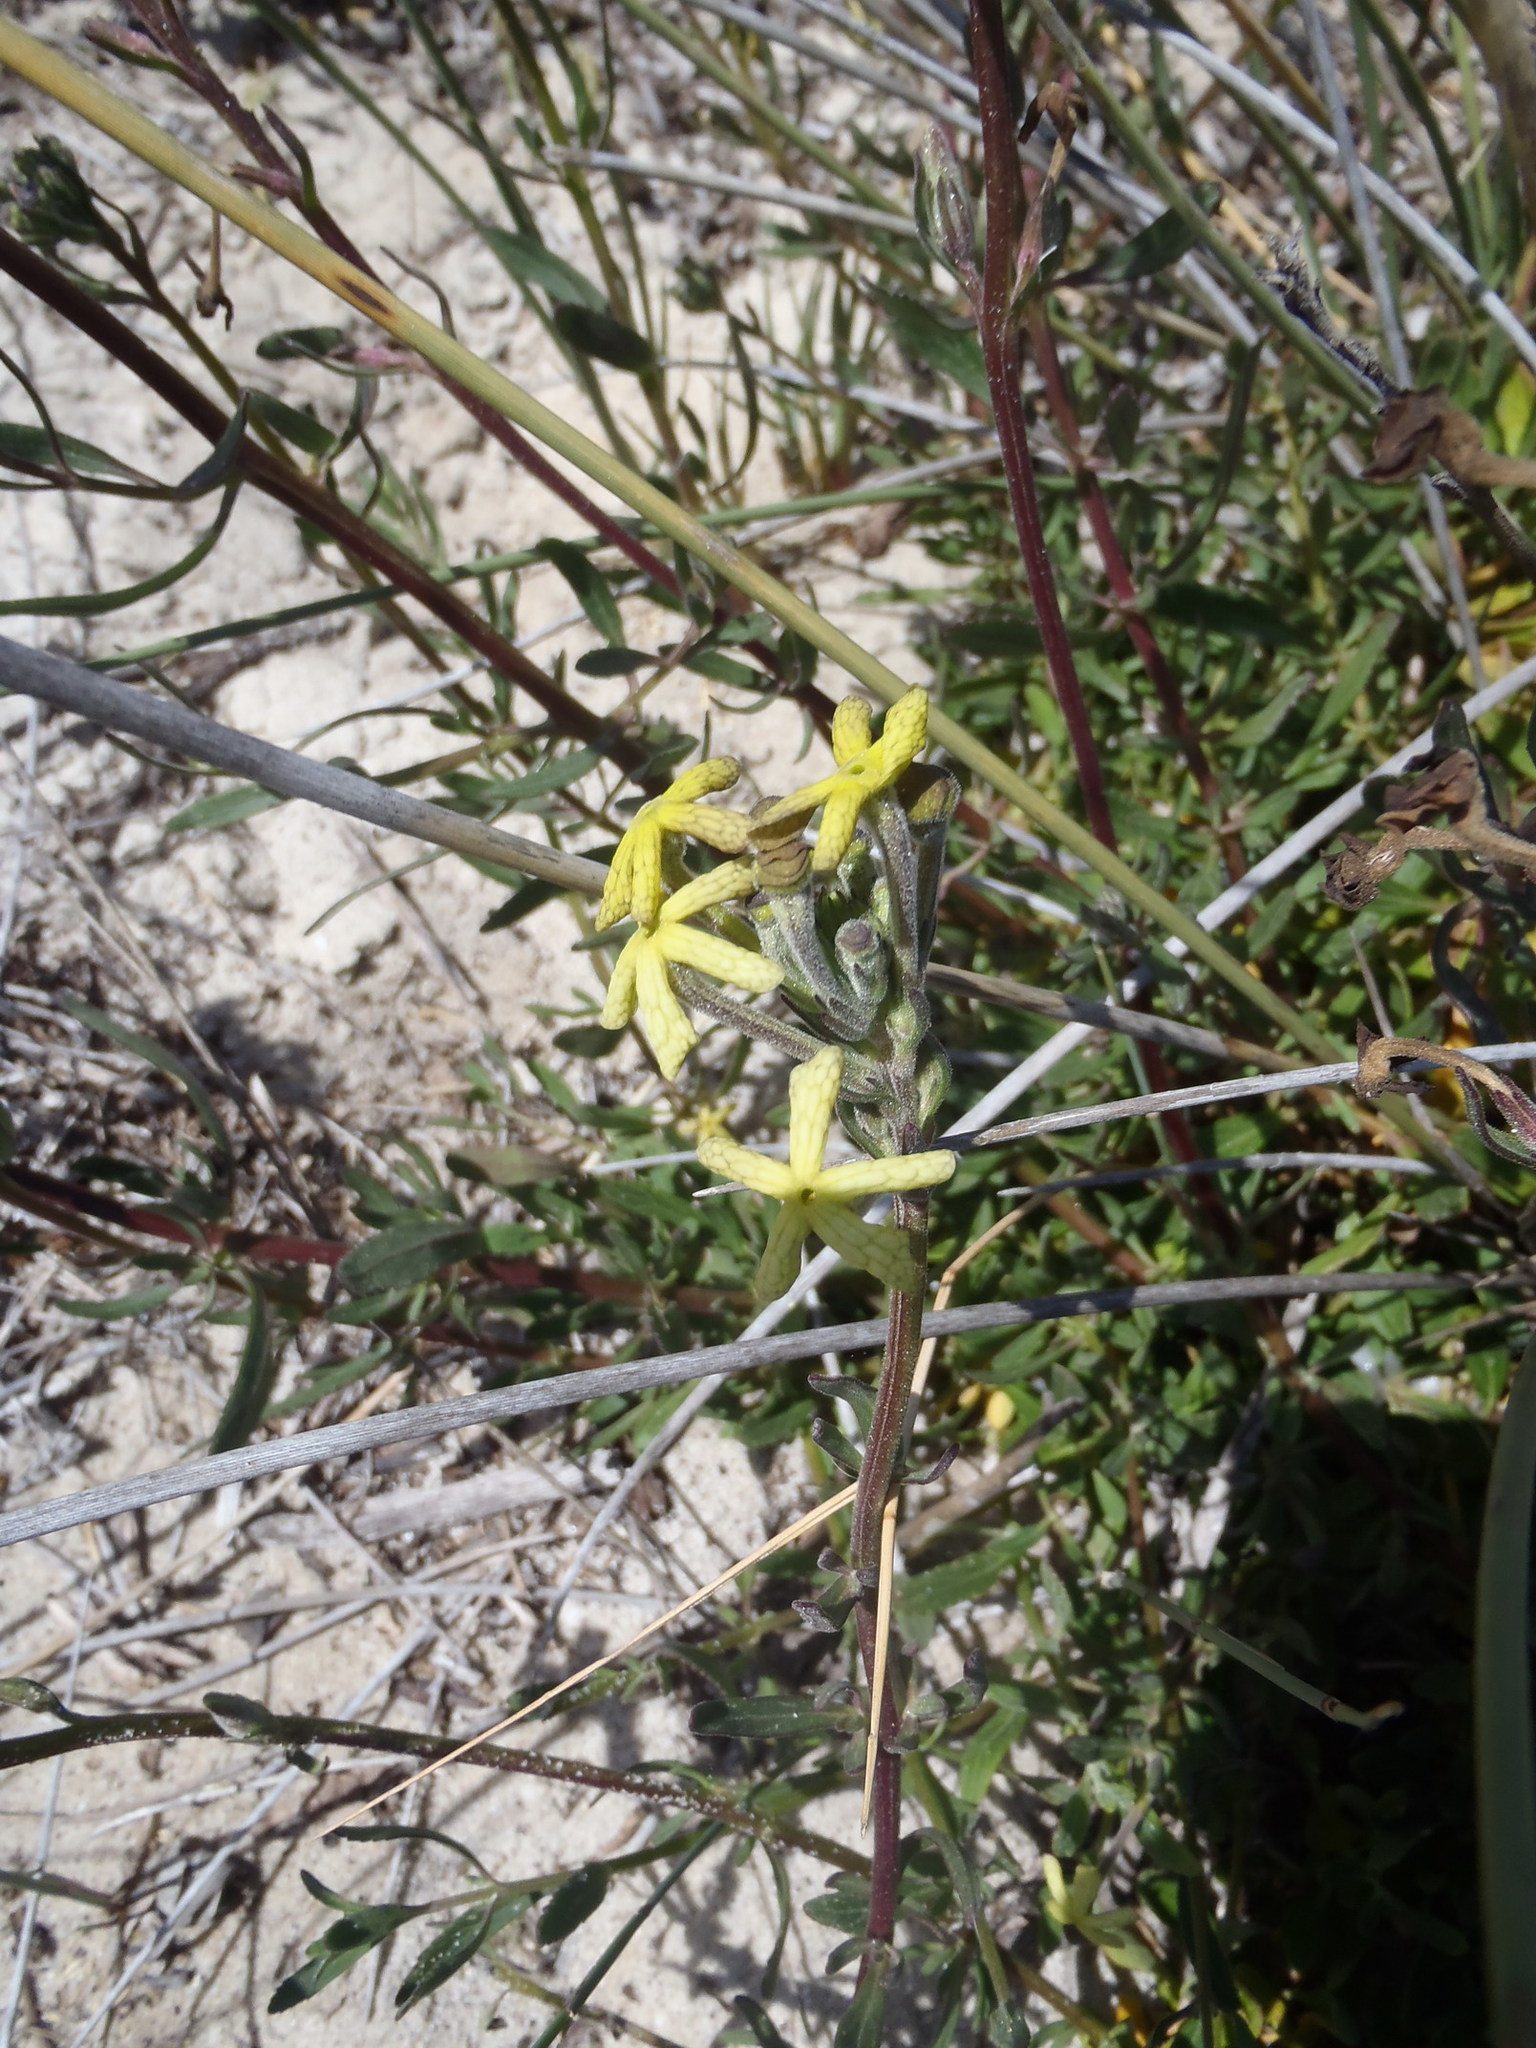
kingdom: Plantae
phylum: Tracheophyta
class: Magnoliopsida
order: Lamiales
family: Scrophulariaceae
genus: Lyperia
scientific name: Lyperia lychnidea
